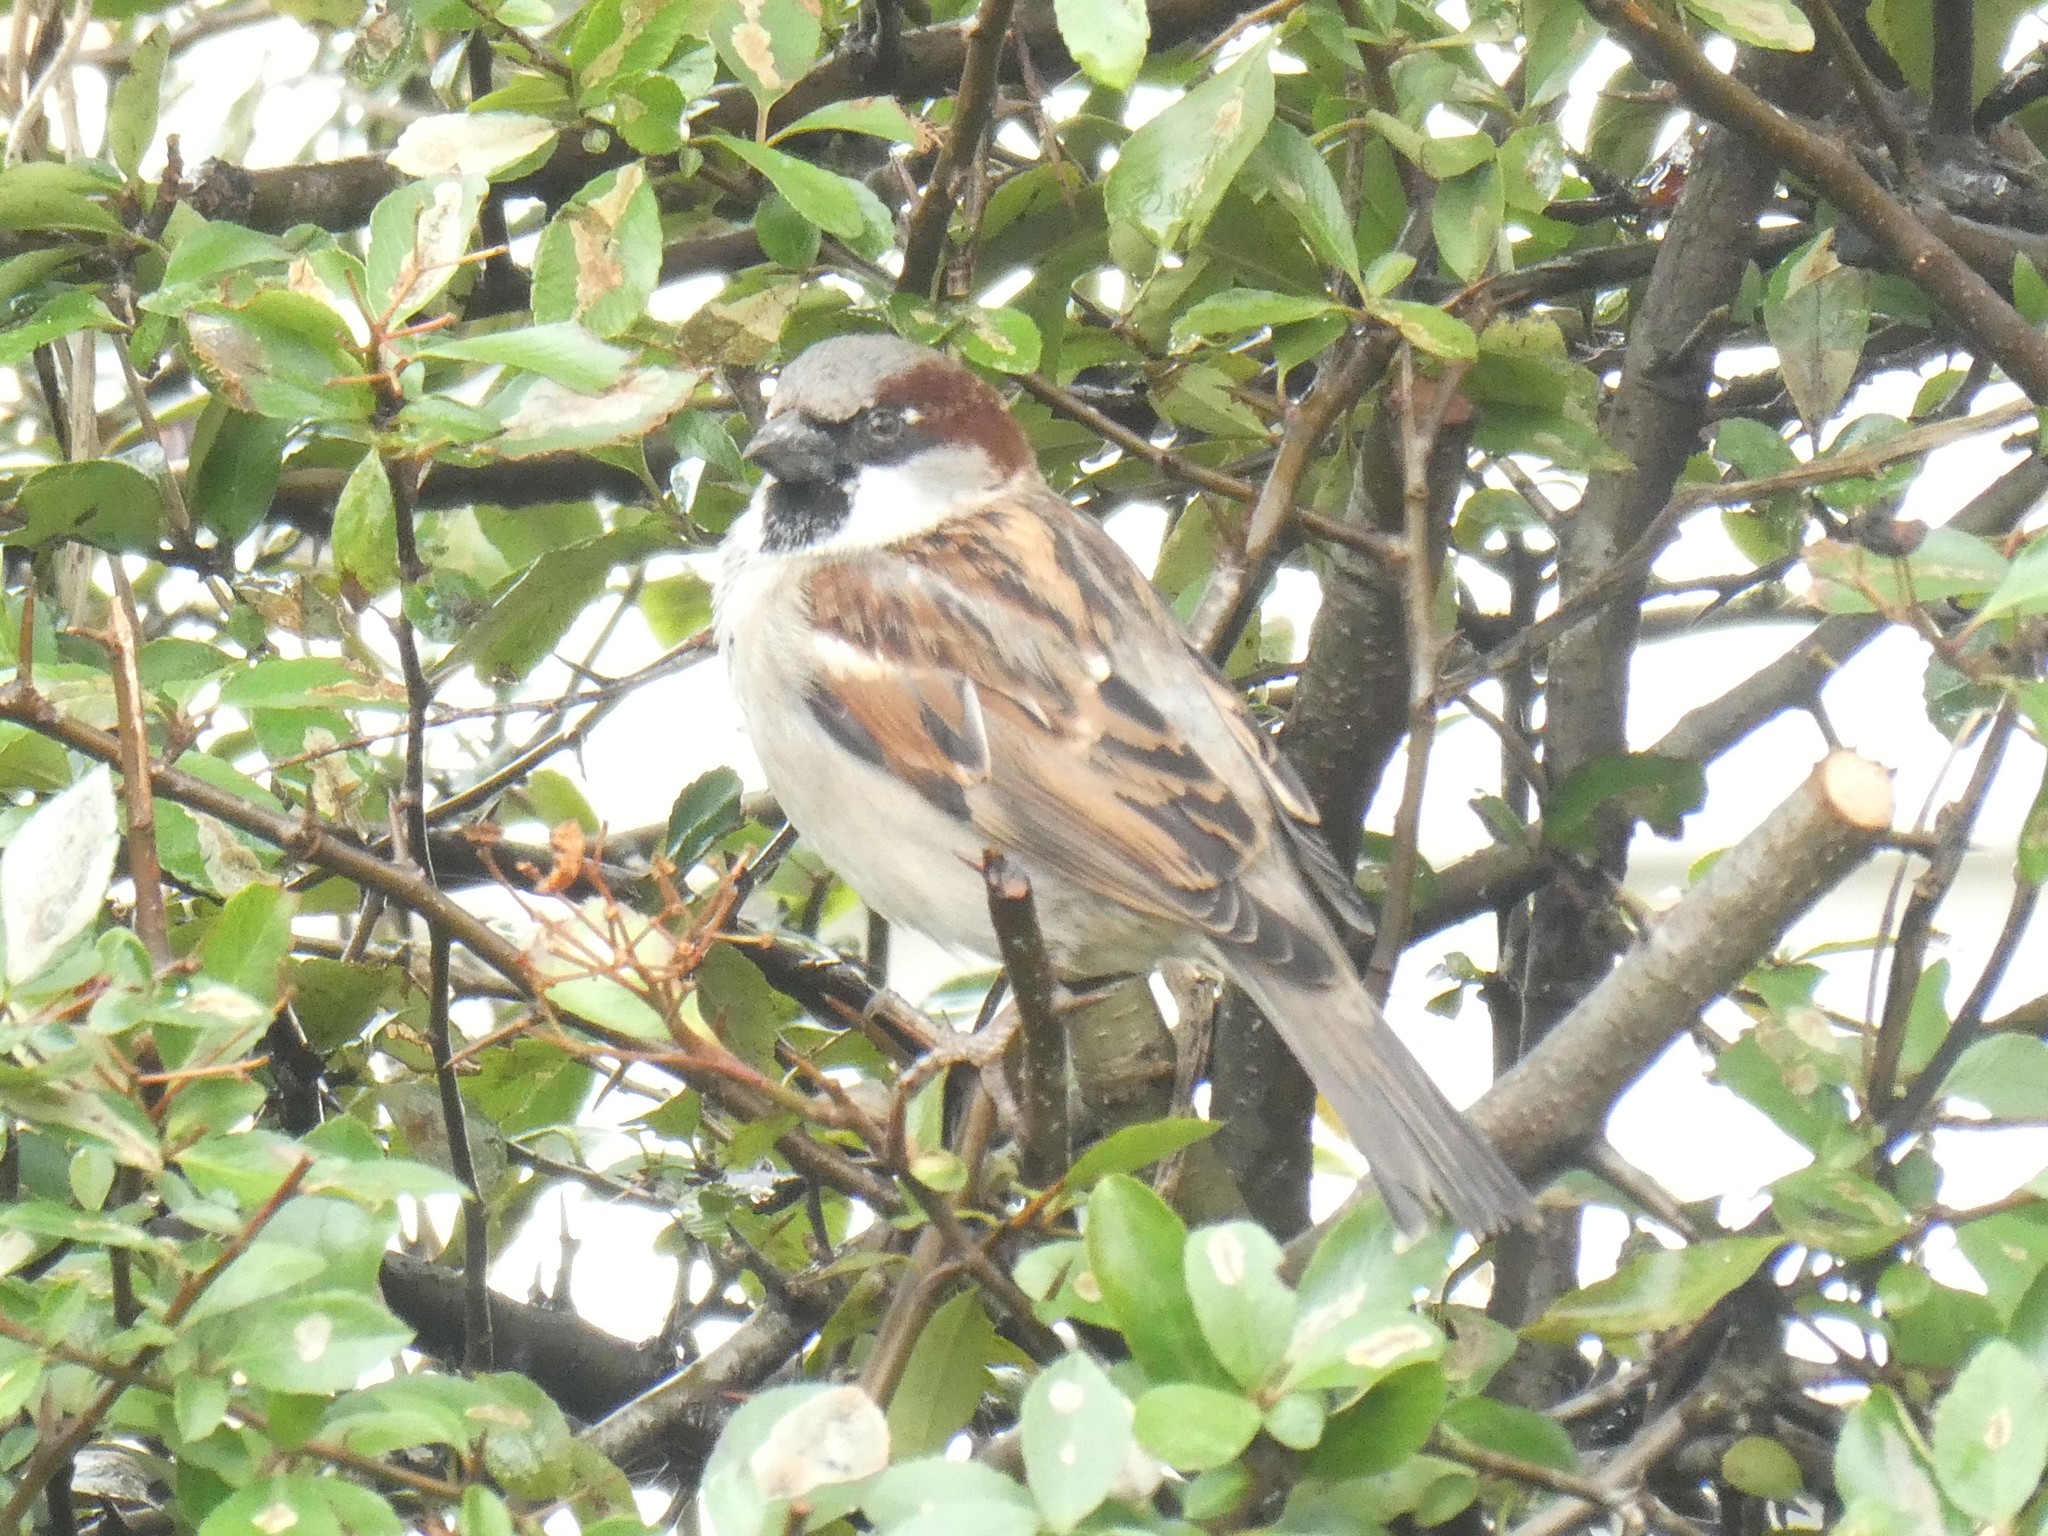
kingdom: Animalia
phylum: Chordata
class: Aves
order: Passeriformes
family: Passeridae
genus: Passer
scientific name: Passer domesticus
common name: House sparrow
